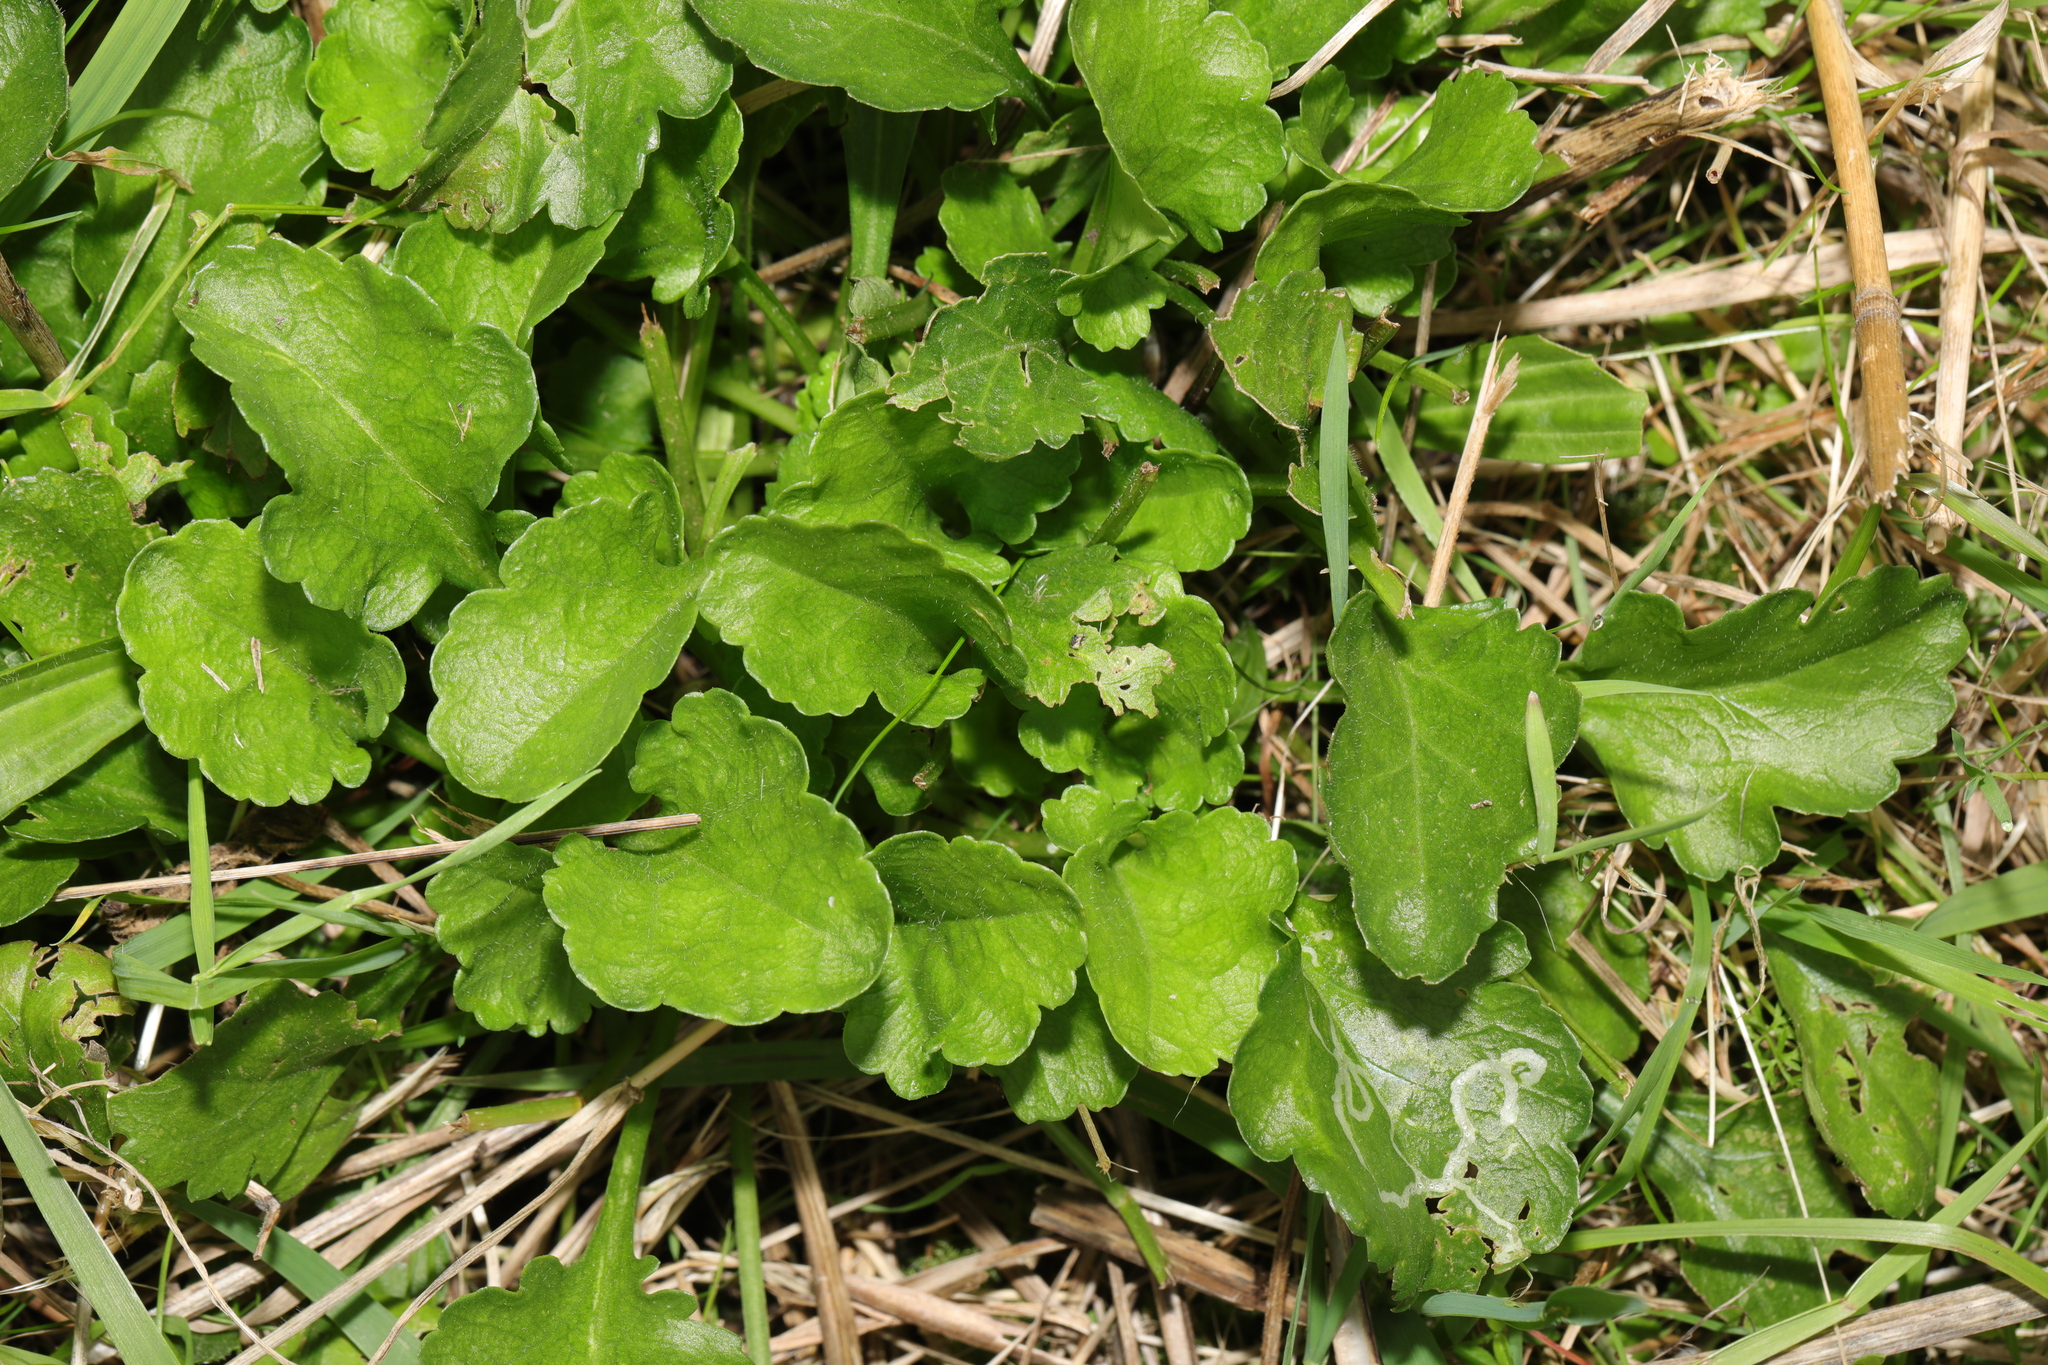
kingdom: Plantae
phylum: Tracheophyta
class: Magnoliopsida
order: Asterales
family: Asteraceae
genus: Leucanthemum
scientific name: Leucanthemum vulgare
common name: Oxeye daisy
